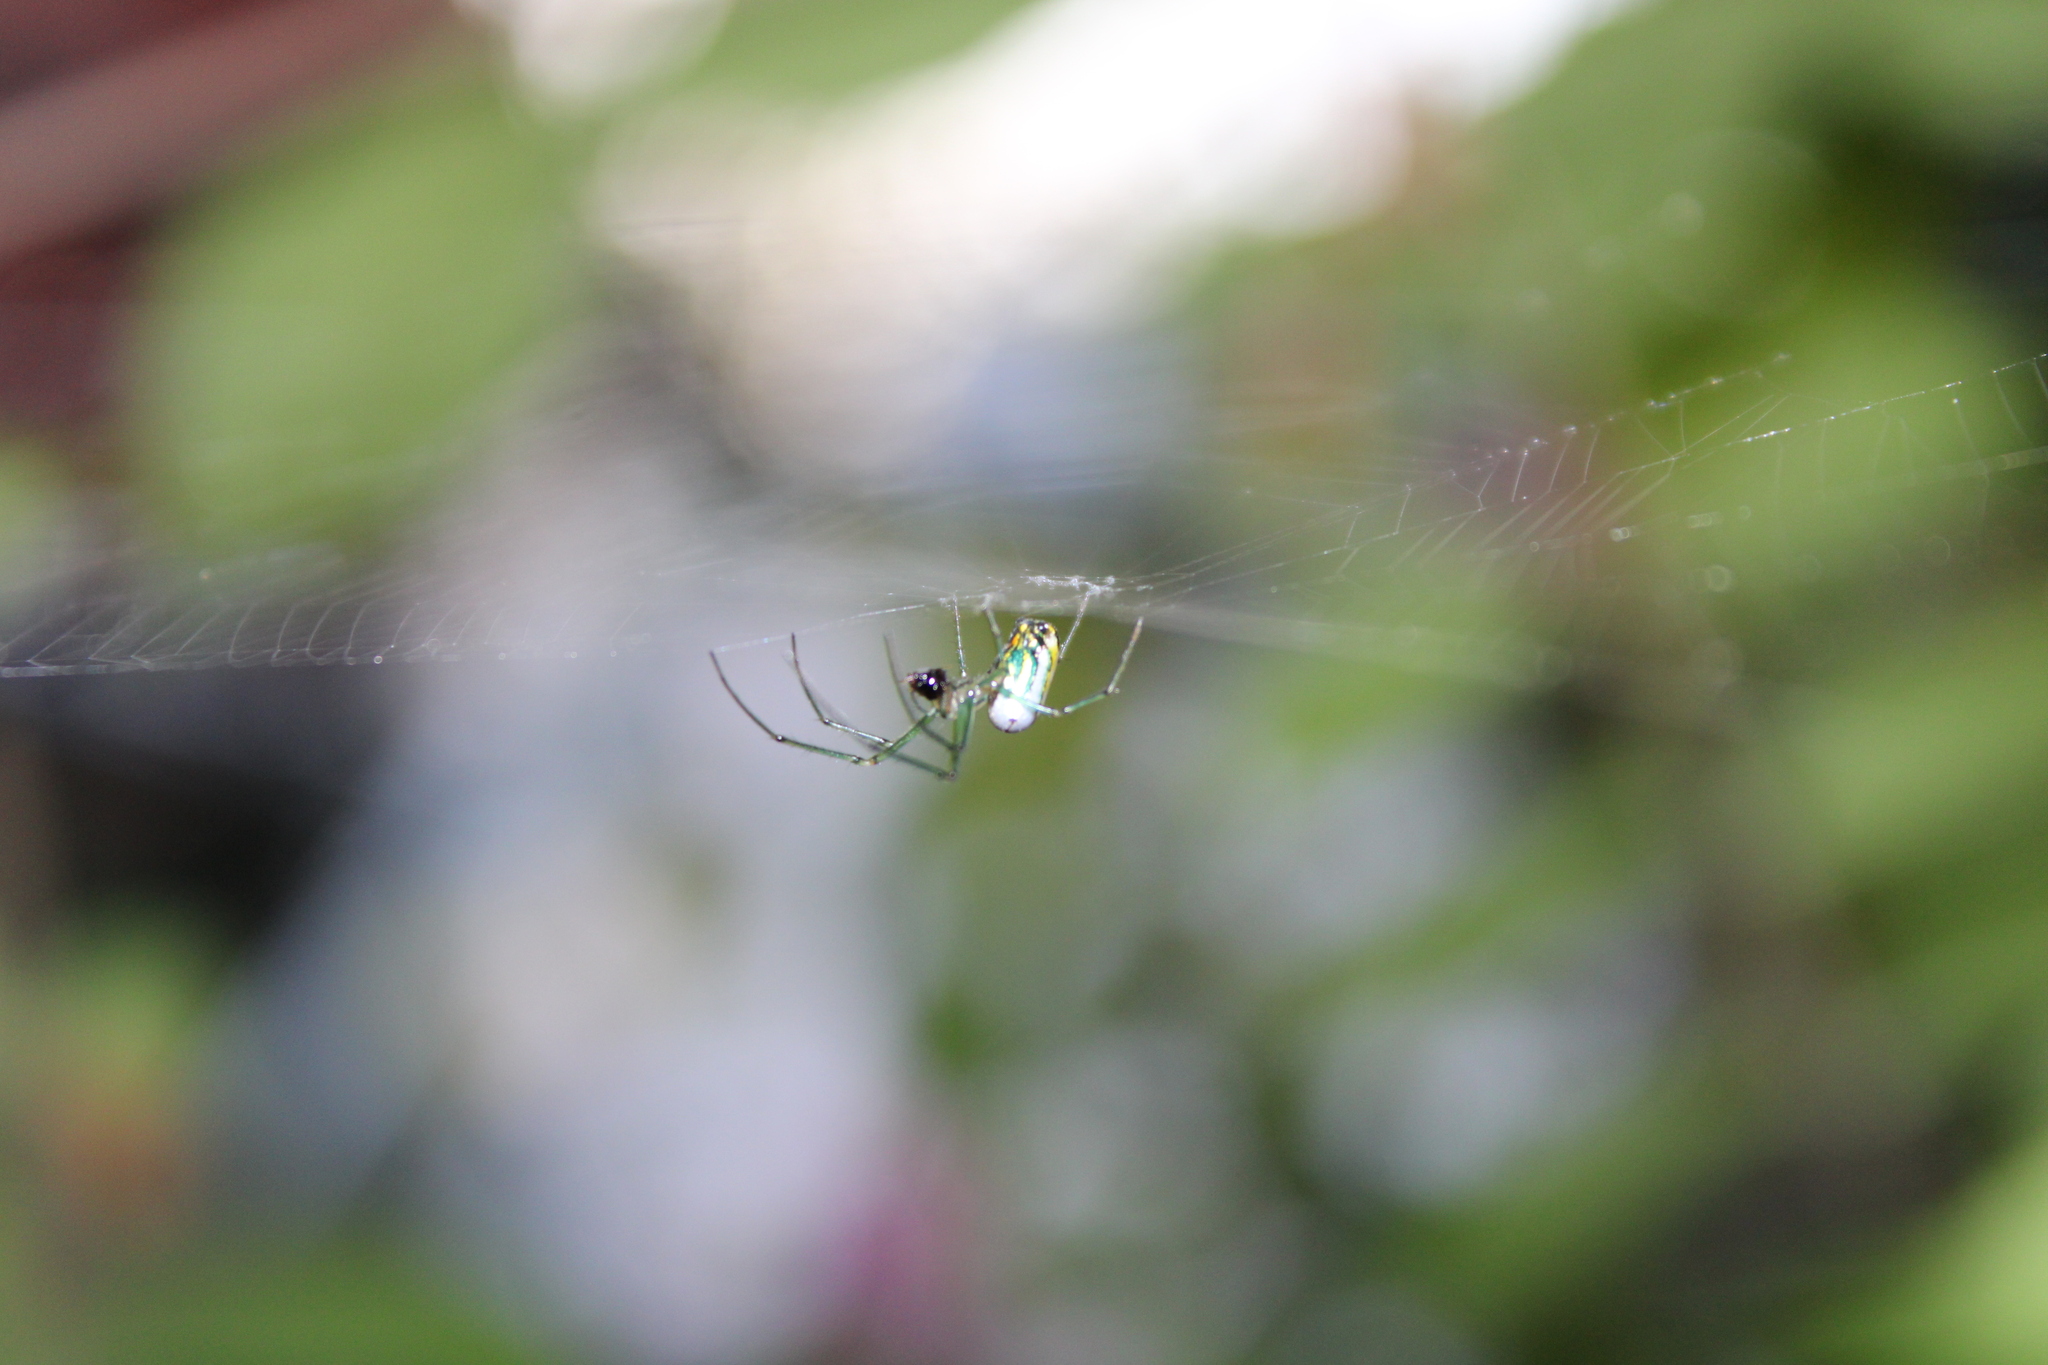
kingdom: Animalia
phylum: Arthropoda
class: Arachnida
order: Araneae
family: Tetragnathidae
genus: Leucauge
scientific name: Leucauge venusta
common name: Longjawed orb weavers
